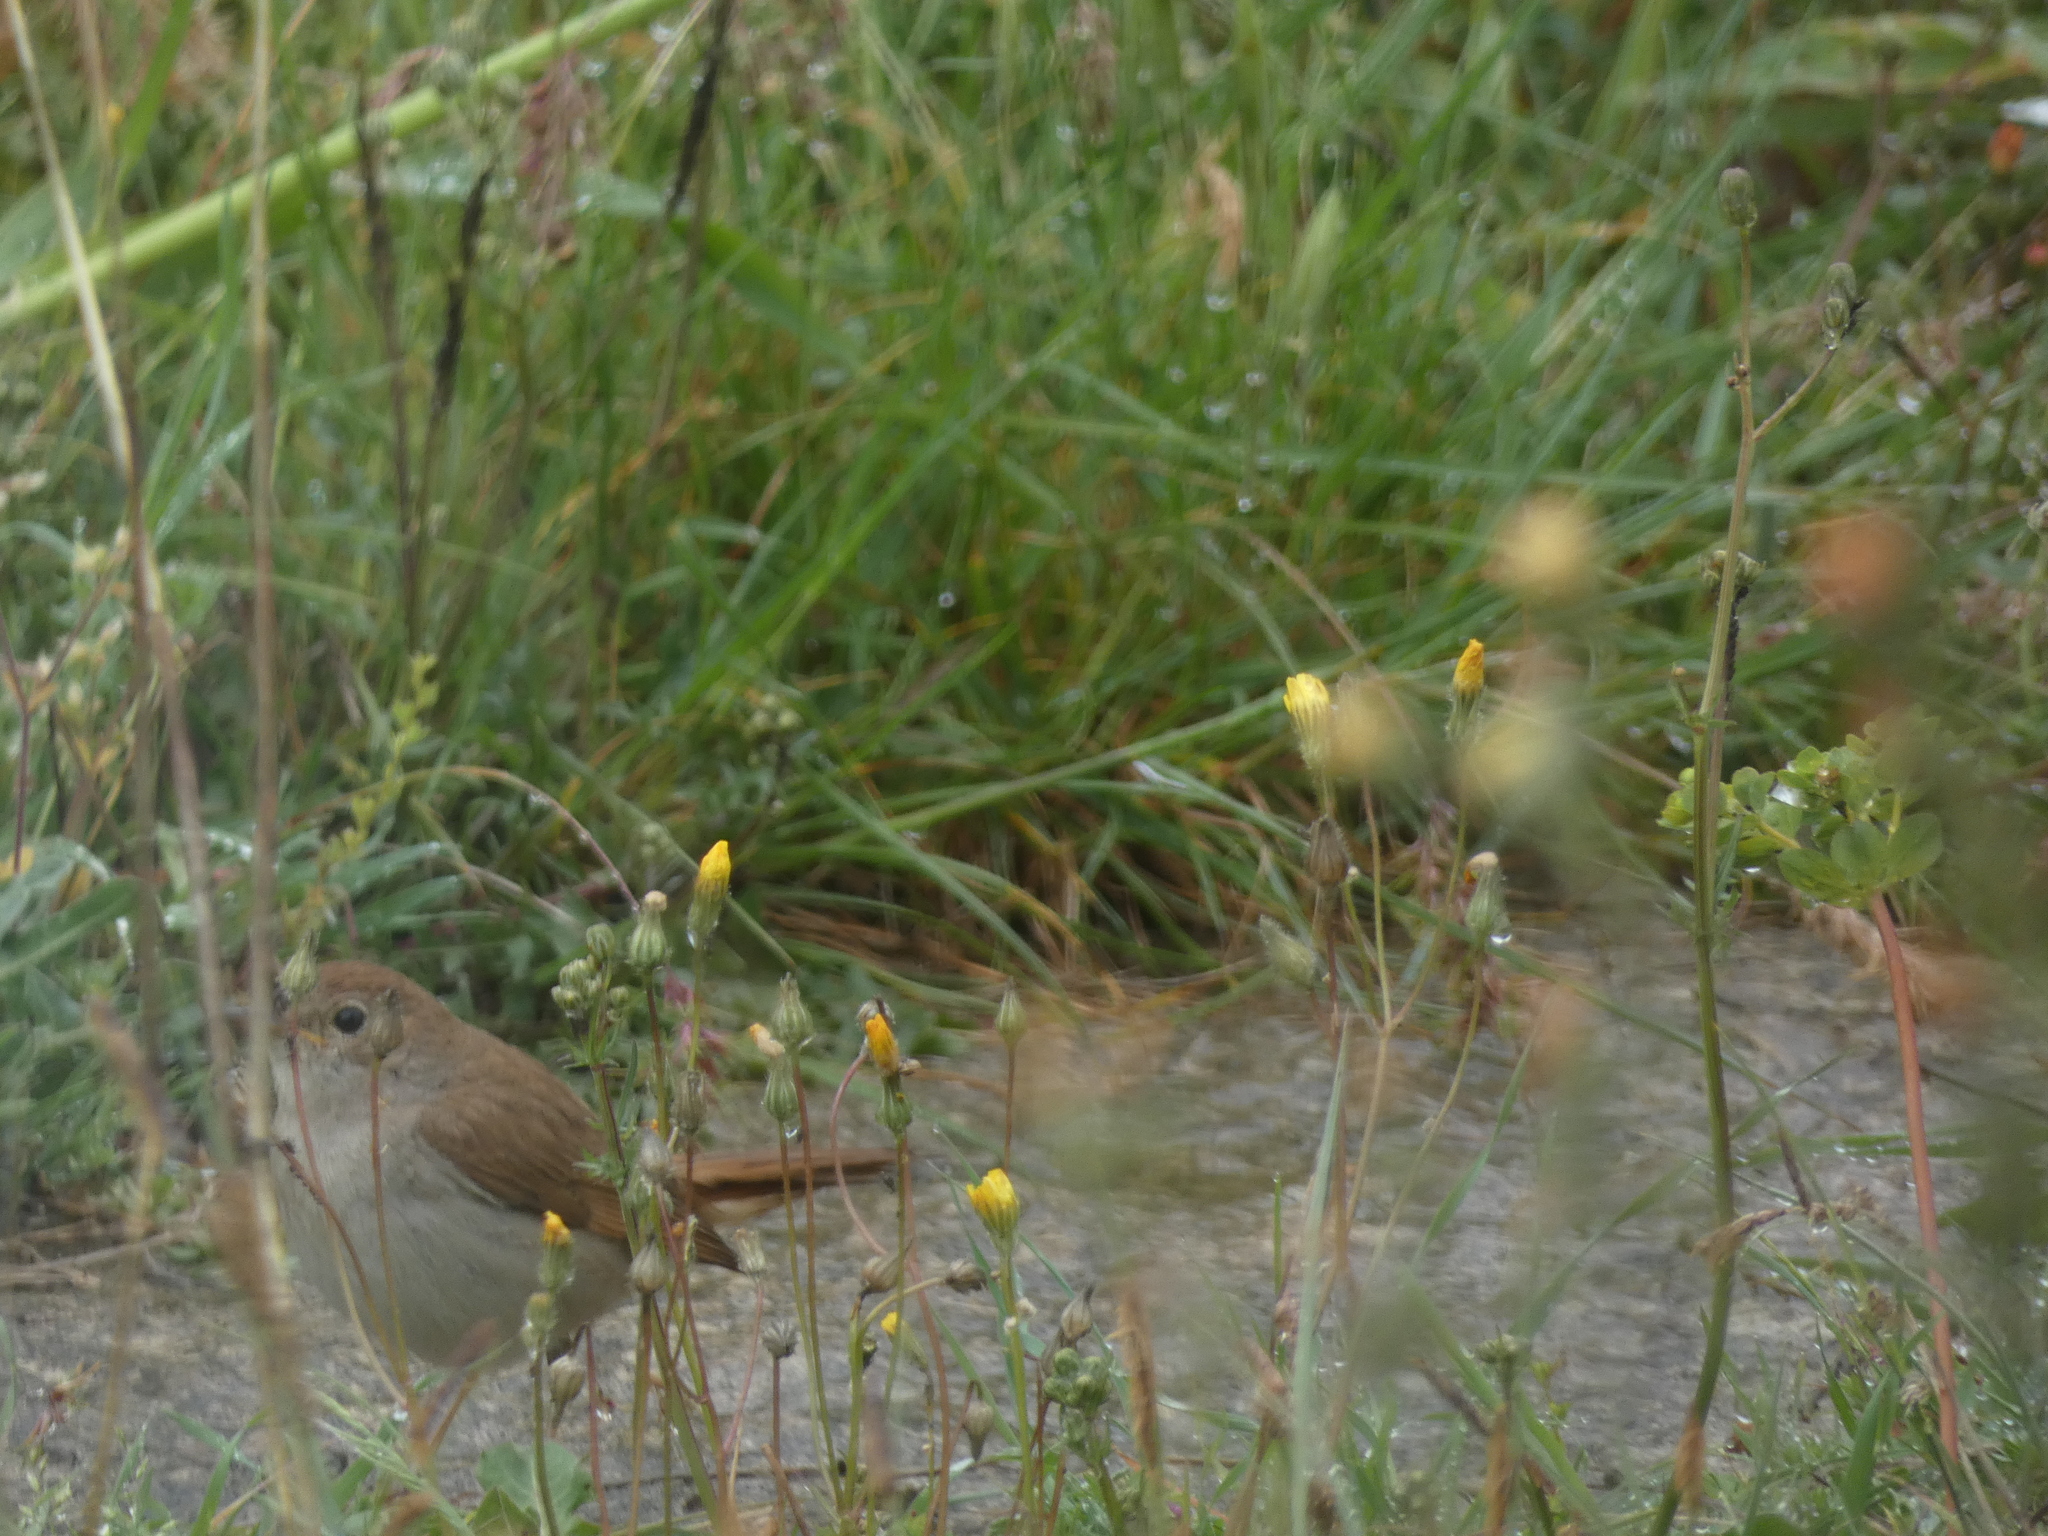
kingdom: Animalia
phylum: Chordata
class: Aves
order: Passeriformes
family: Muscicapidae
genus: Luscinia
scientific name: Luscinia megarhynchos
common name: Common nightingale
